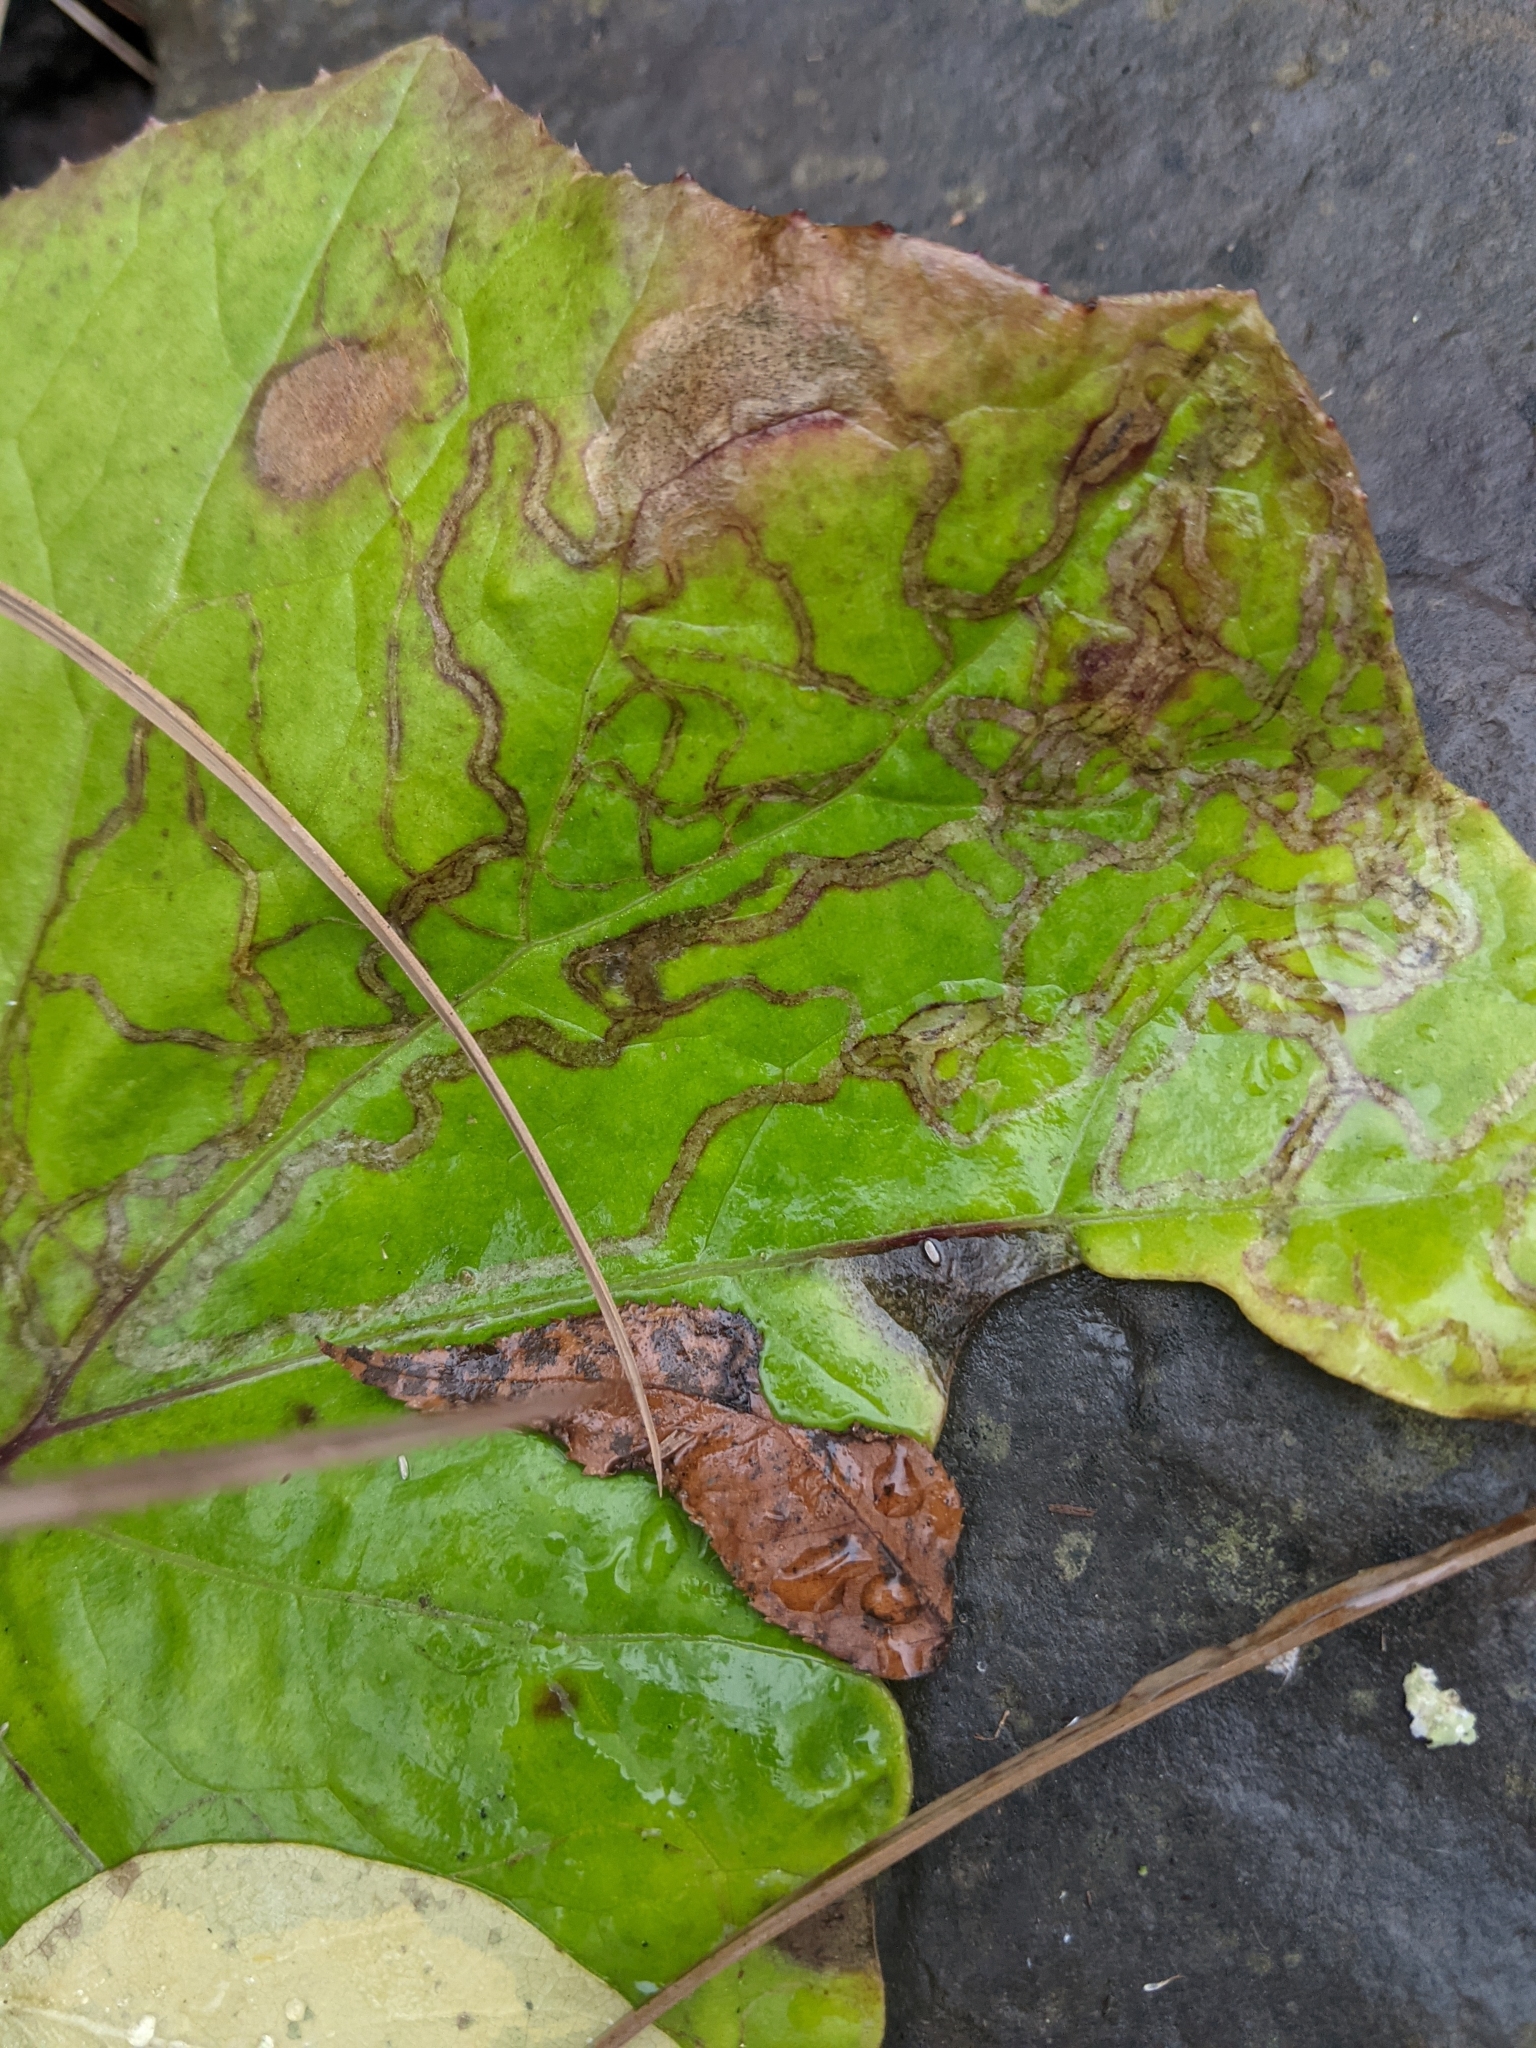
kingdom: Animalia
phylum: Arthropoda
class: Insecta
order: Lepidoptera
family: Gracillariidae
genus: Phyllocnistis
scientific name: Phyllocnistis insignis
